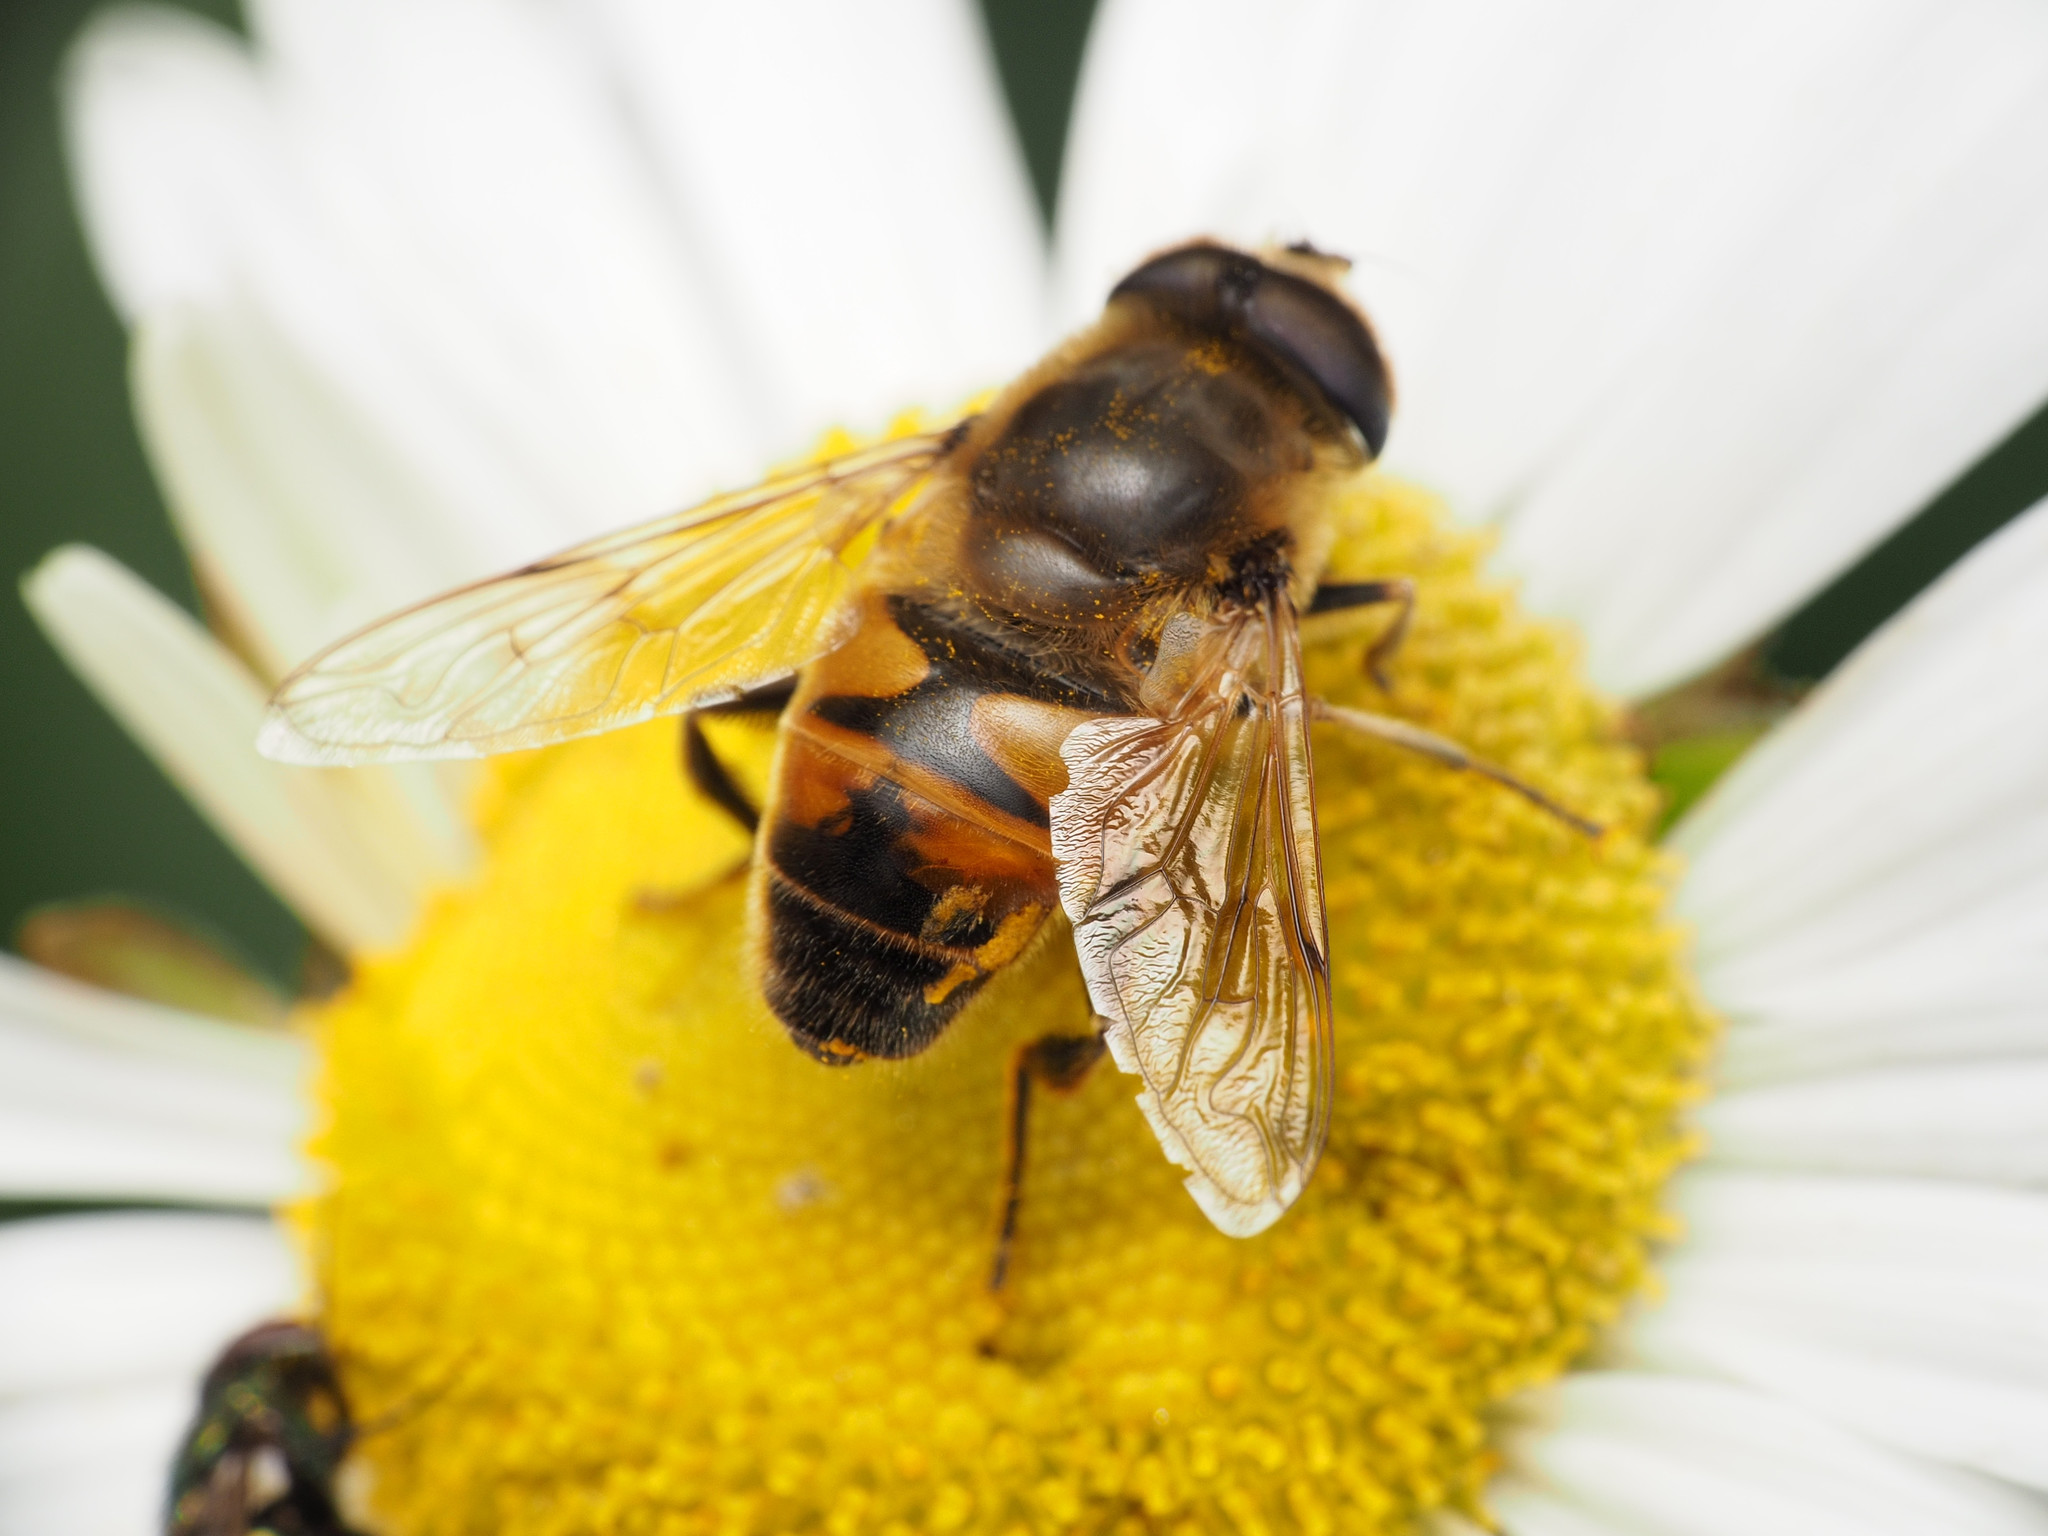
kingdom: Animalia
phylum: Arthropoda
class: Insecta
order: Diptera
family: Syrphidae
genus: Eristalis
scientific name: Eristalis tenax
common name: Drone fly
